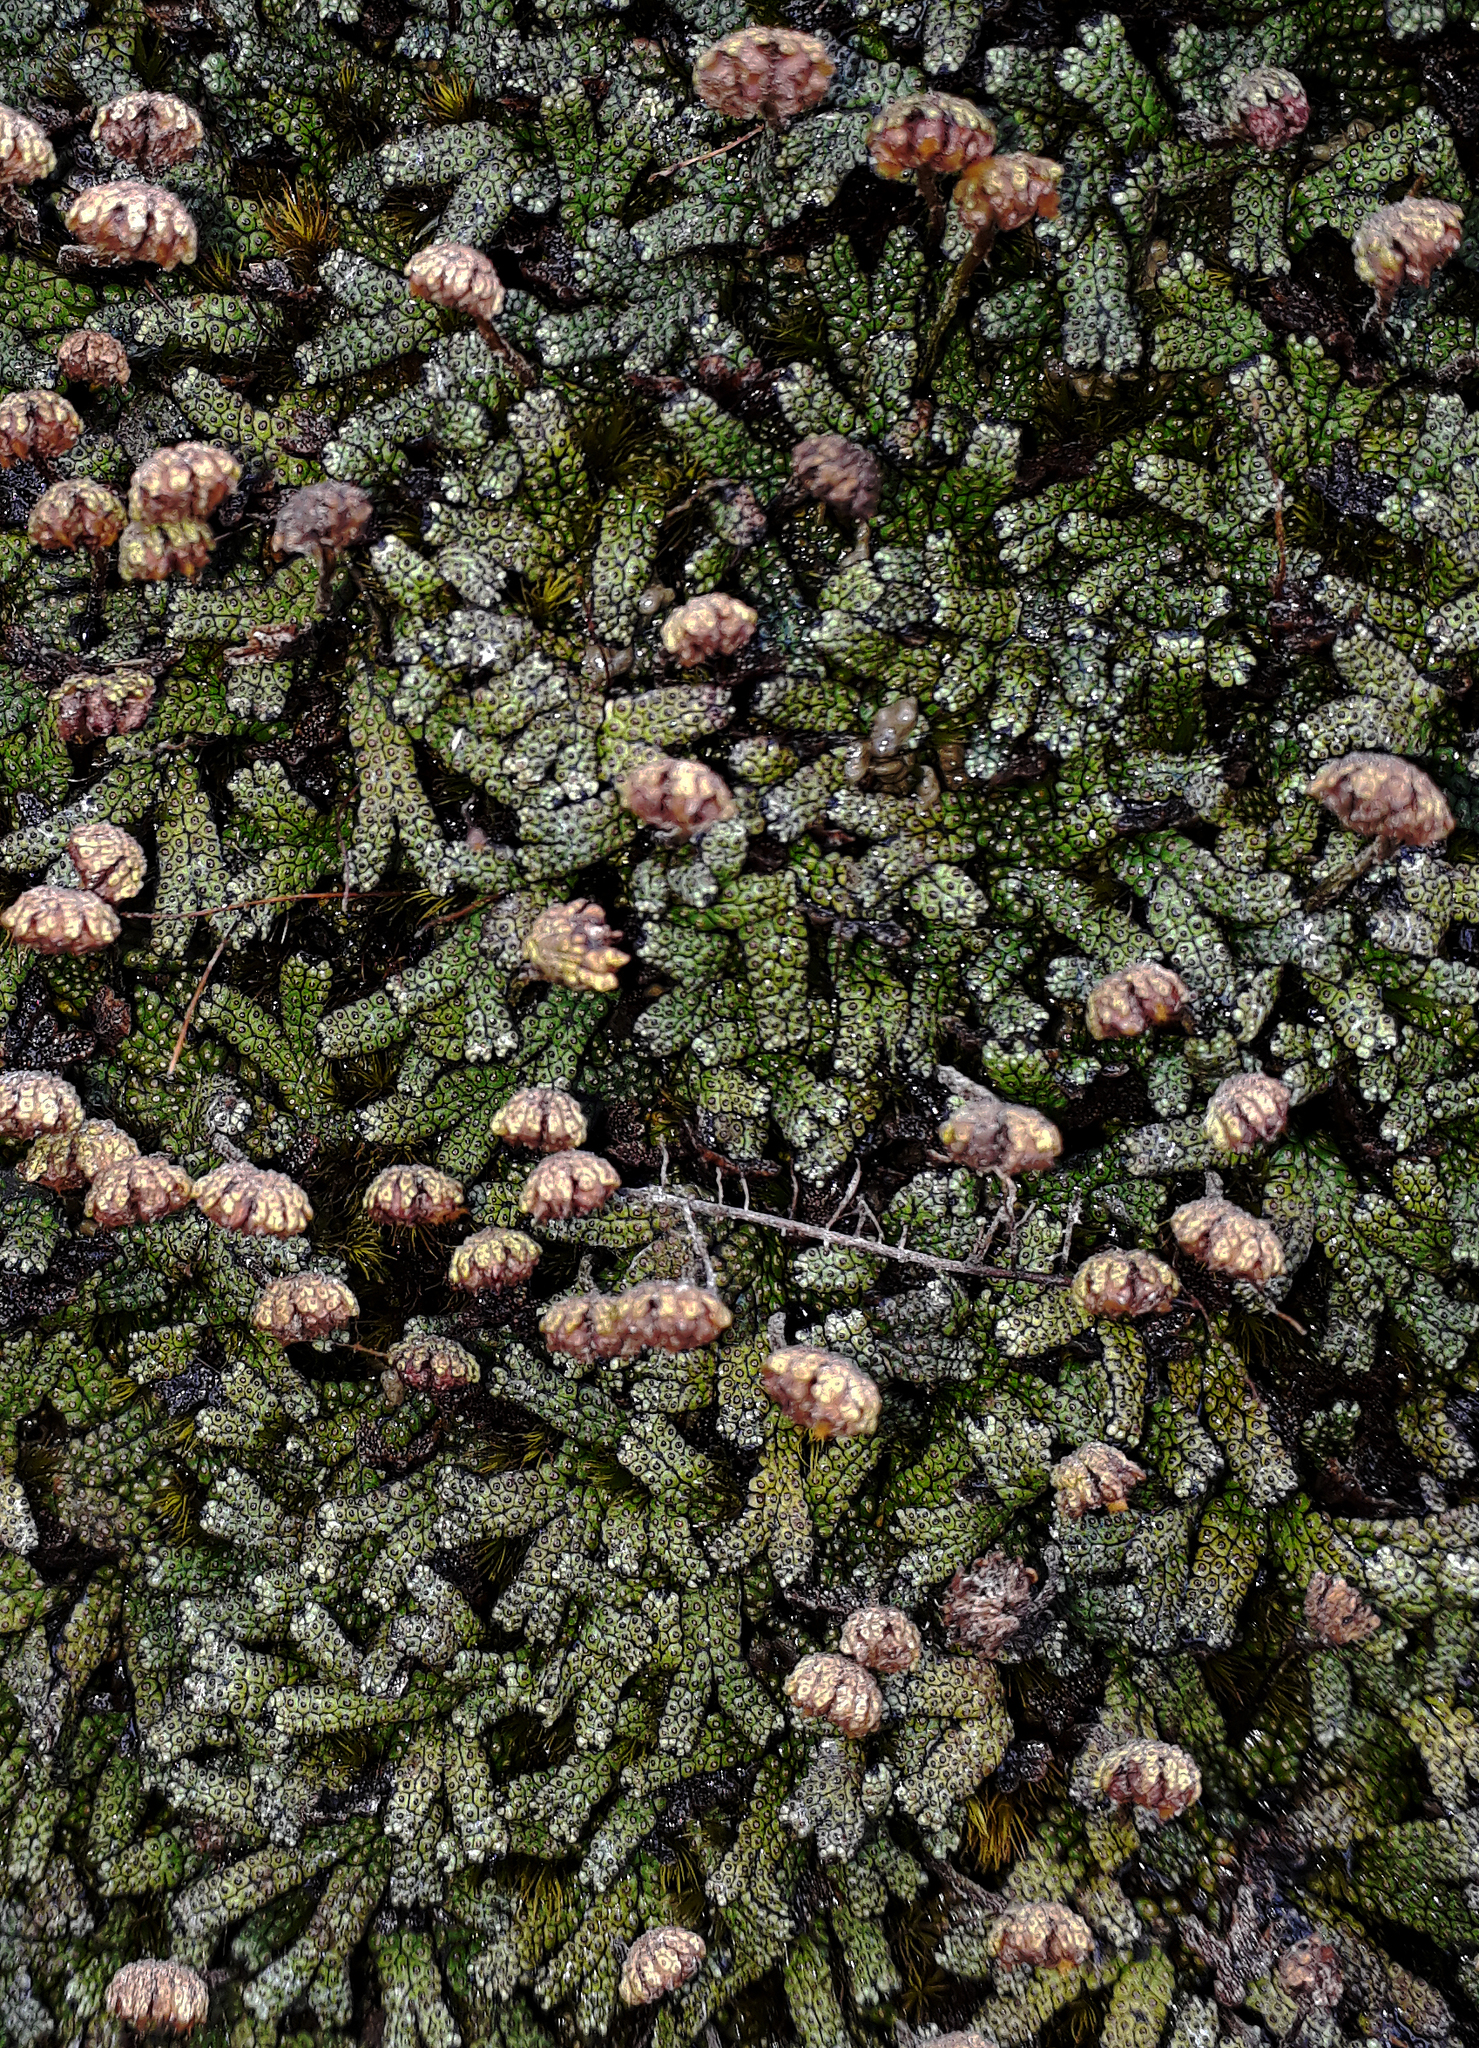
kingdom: Plantae
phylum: Marchantiophyta
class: Marchantiopsida
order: Marchantiales
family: Marchantiaceae
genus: Marchantia
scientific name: Marchantia macropora
